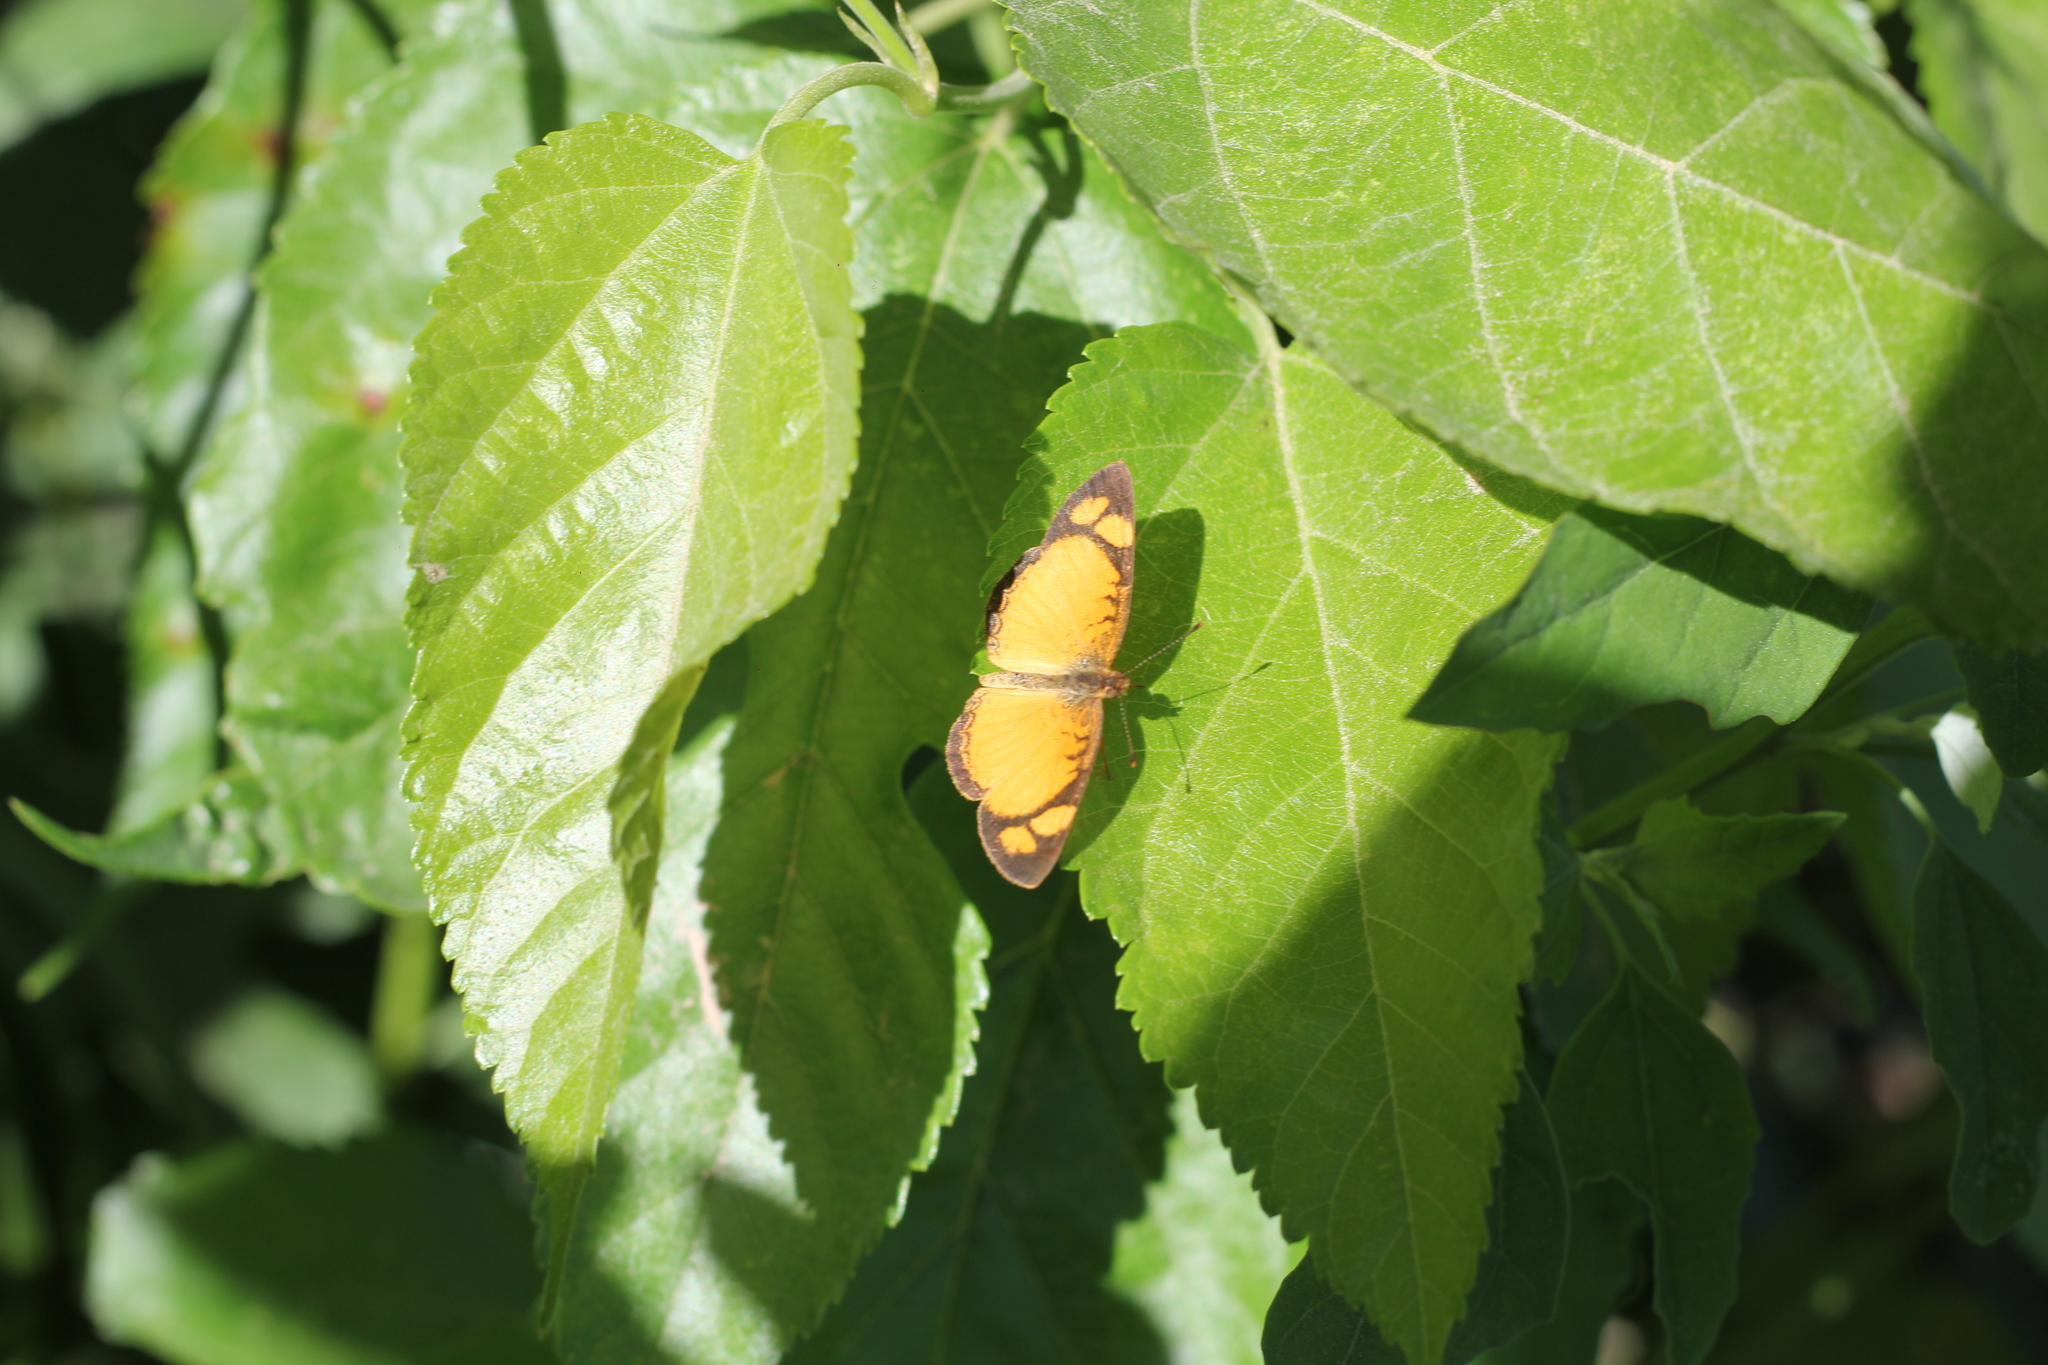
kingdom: Animalia
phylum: Arthropoda
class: Insecta
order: Lepidoptera
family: Nymphalidae
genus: Tegosa
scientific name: Tegosa claudina
